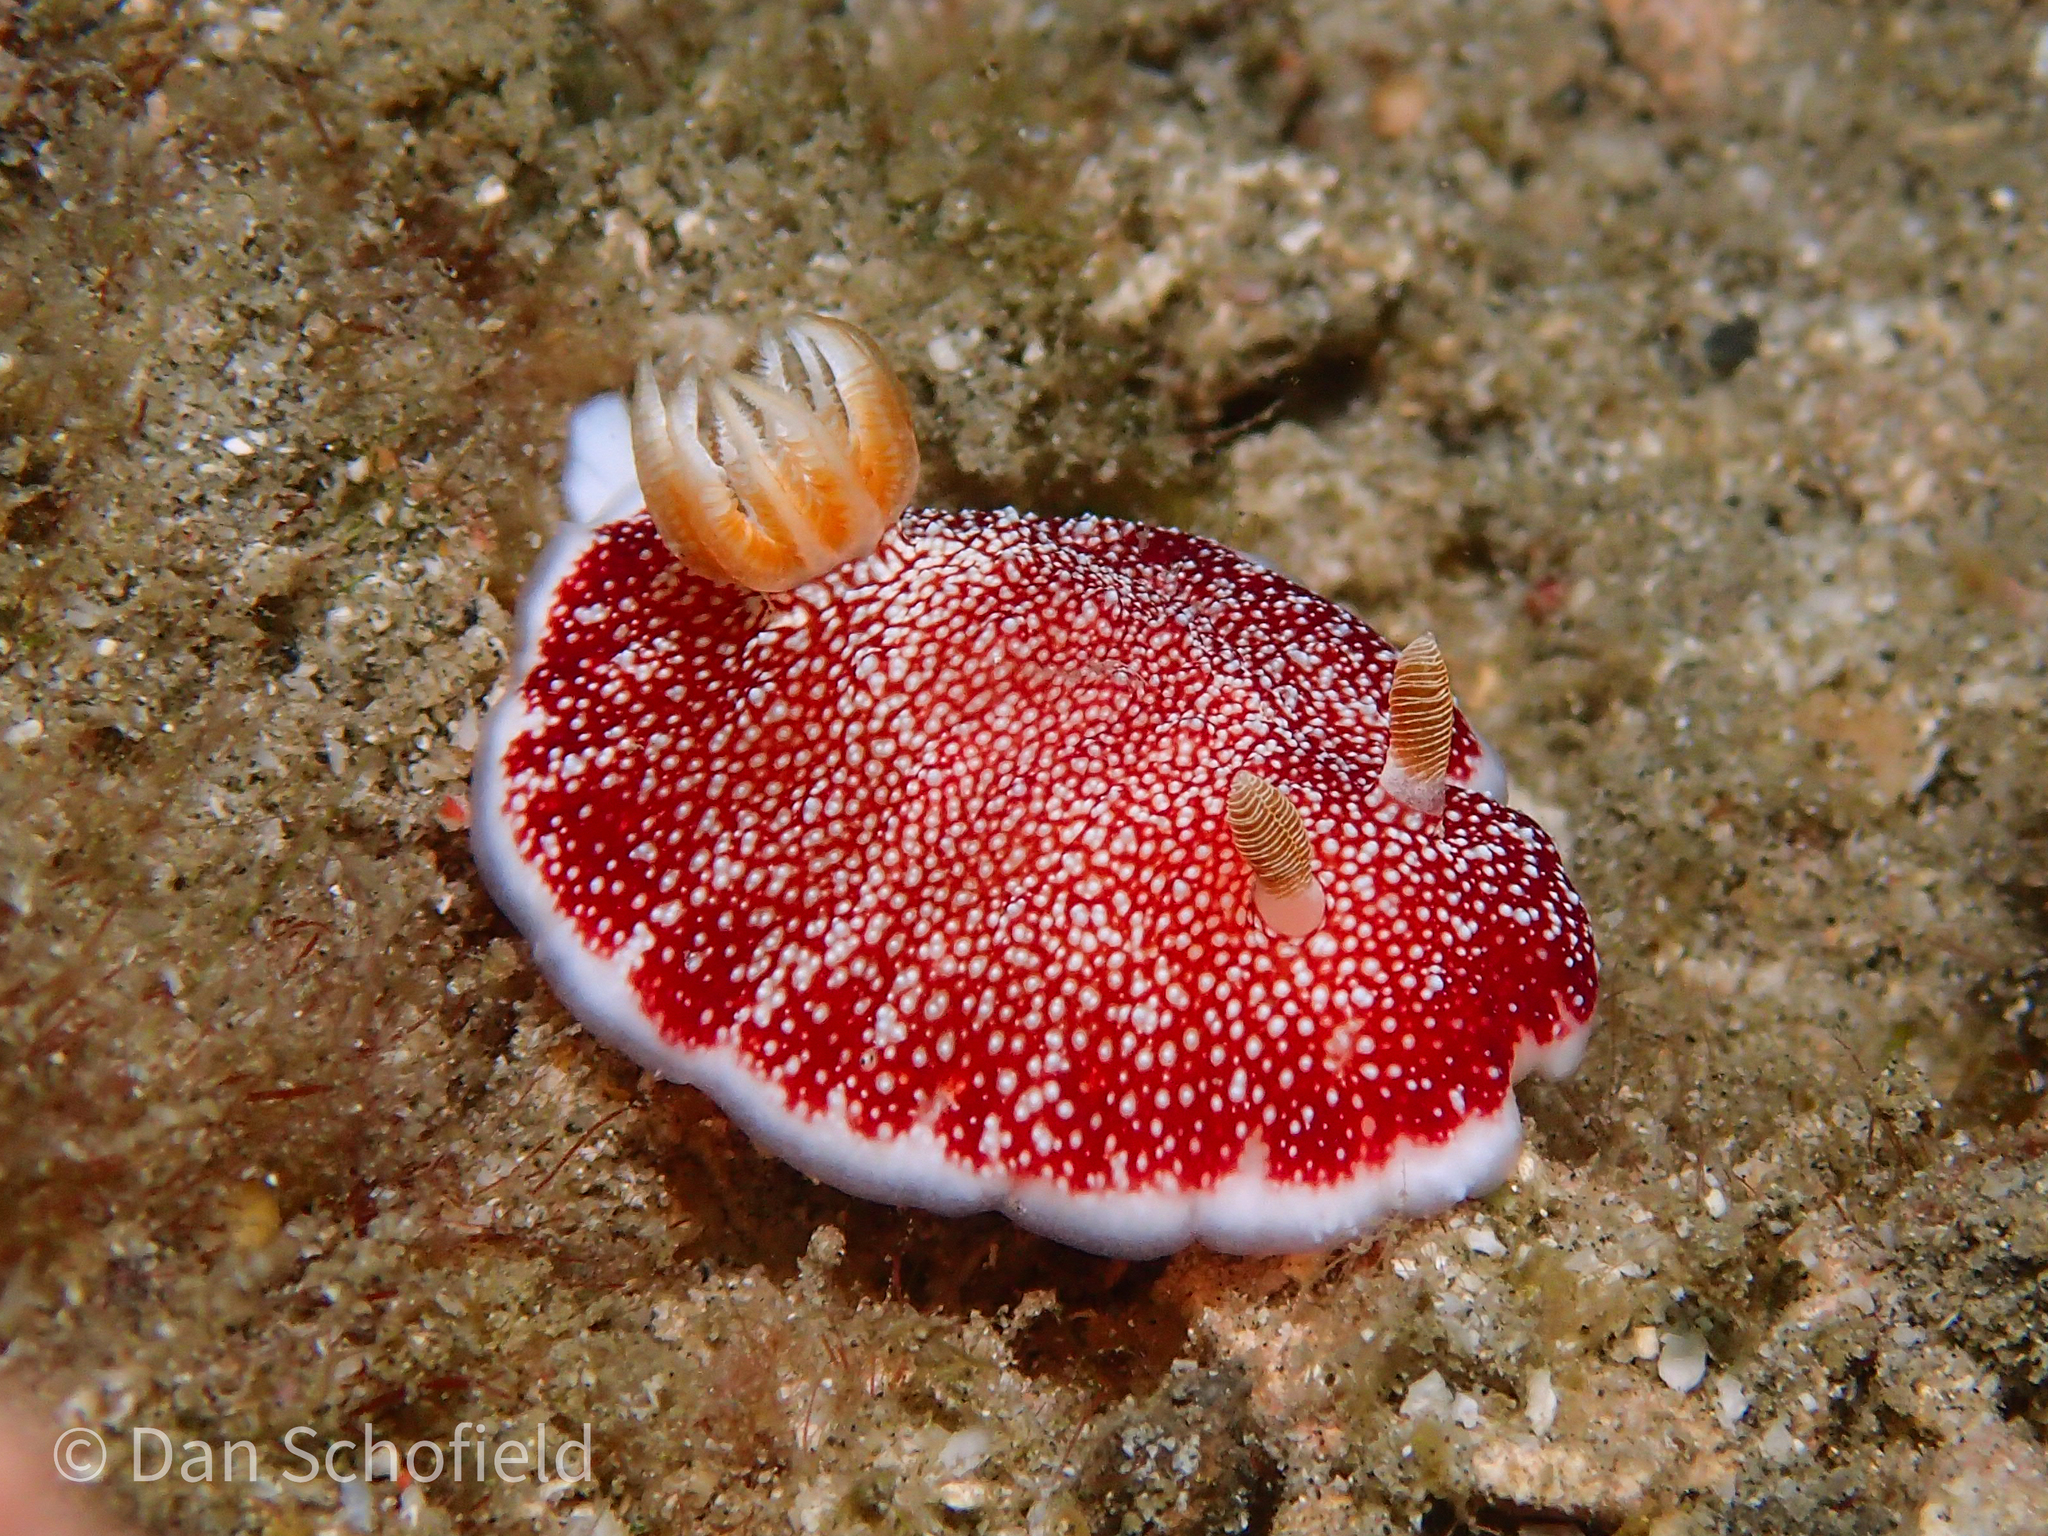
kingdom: Animalia
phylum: Mollusca
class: Gastropoda
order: Nudibranchia
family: Chromodorididae
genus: Goniobranchus
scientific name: Goniobranchus reticulatus
